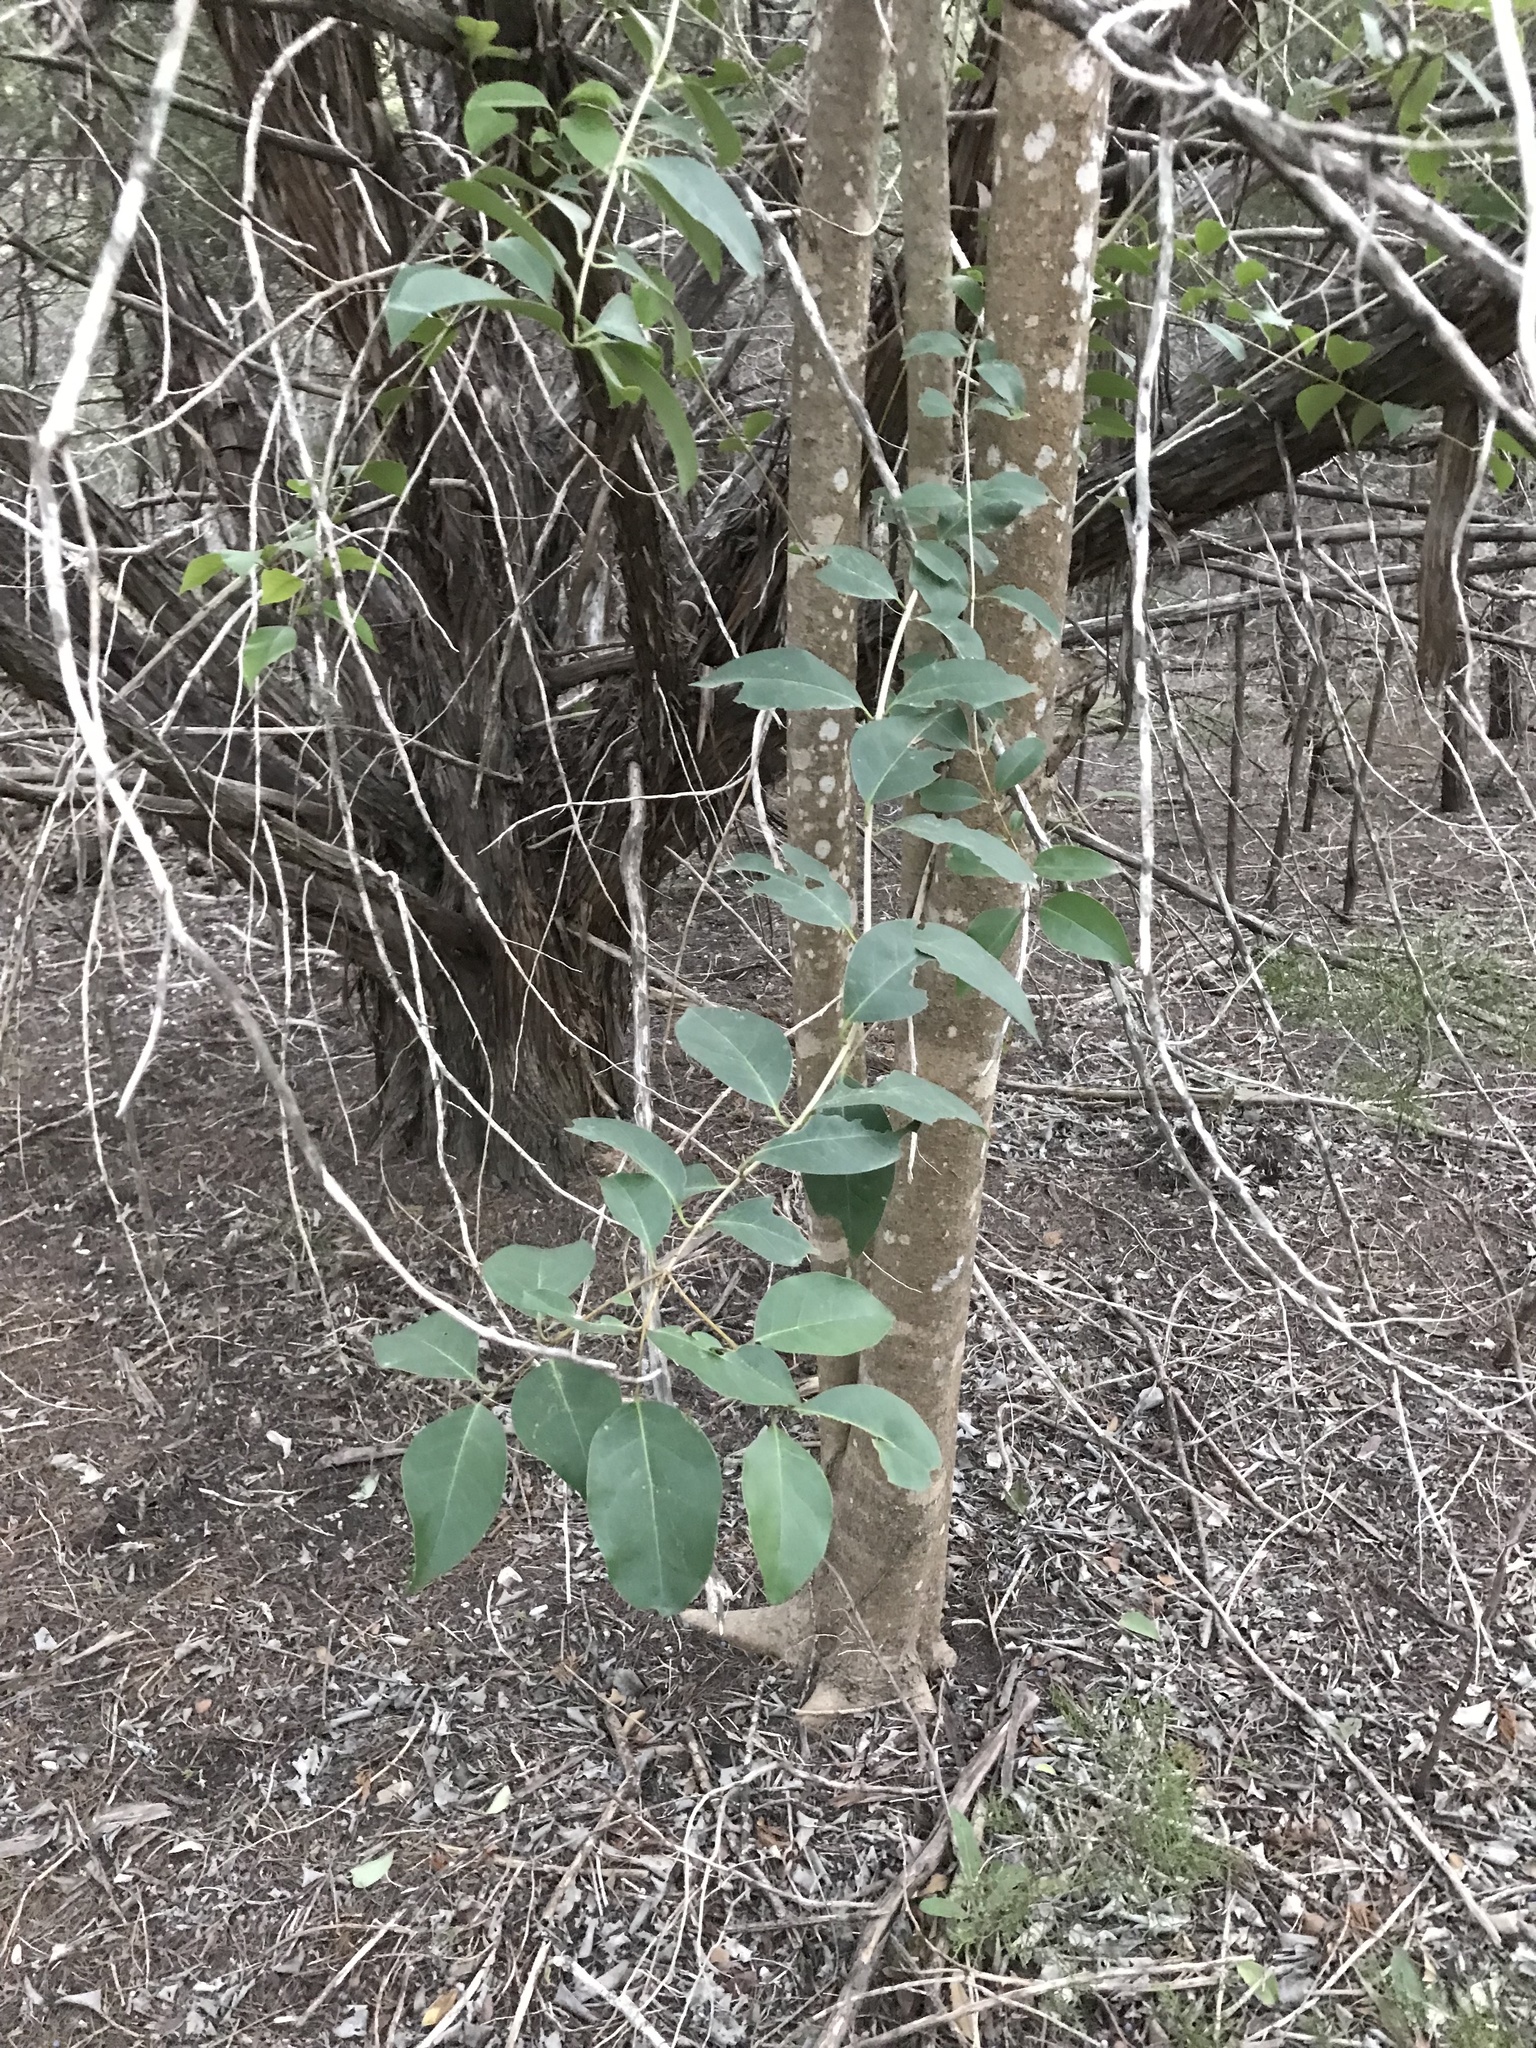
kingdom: Plantae
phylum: Tracheophyta
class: Magnoliopsida
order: Lamiales
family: Oleaceae
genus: Ligustrum
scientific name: Ligustrum lucidum
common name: Glossy privet
